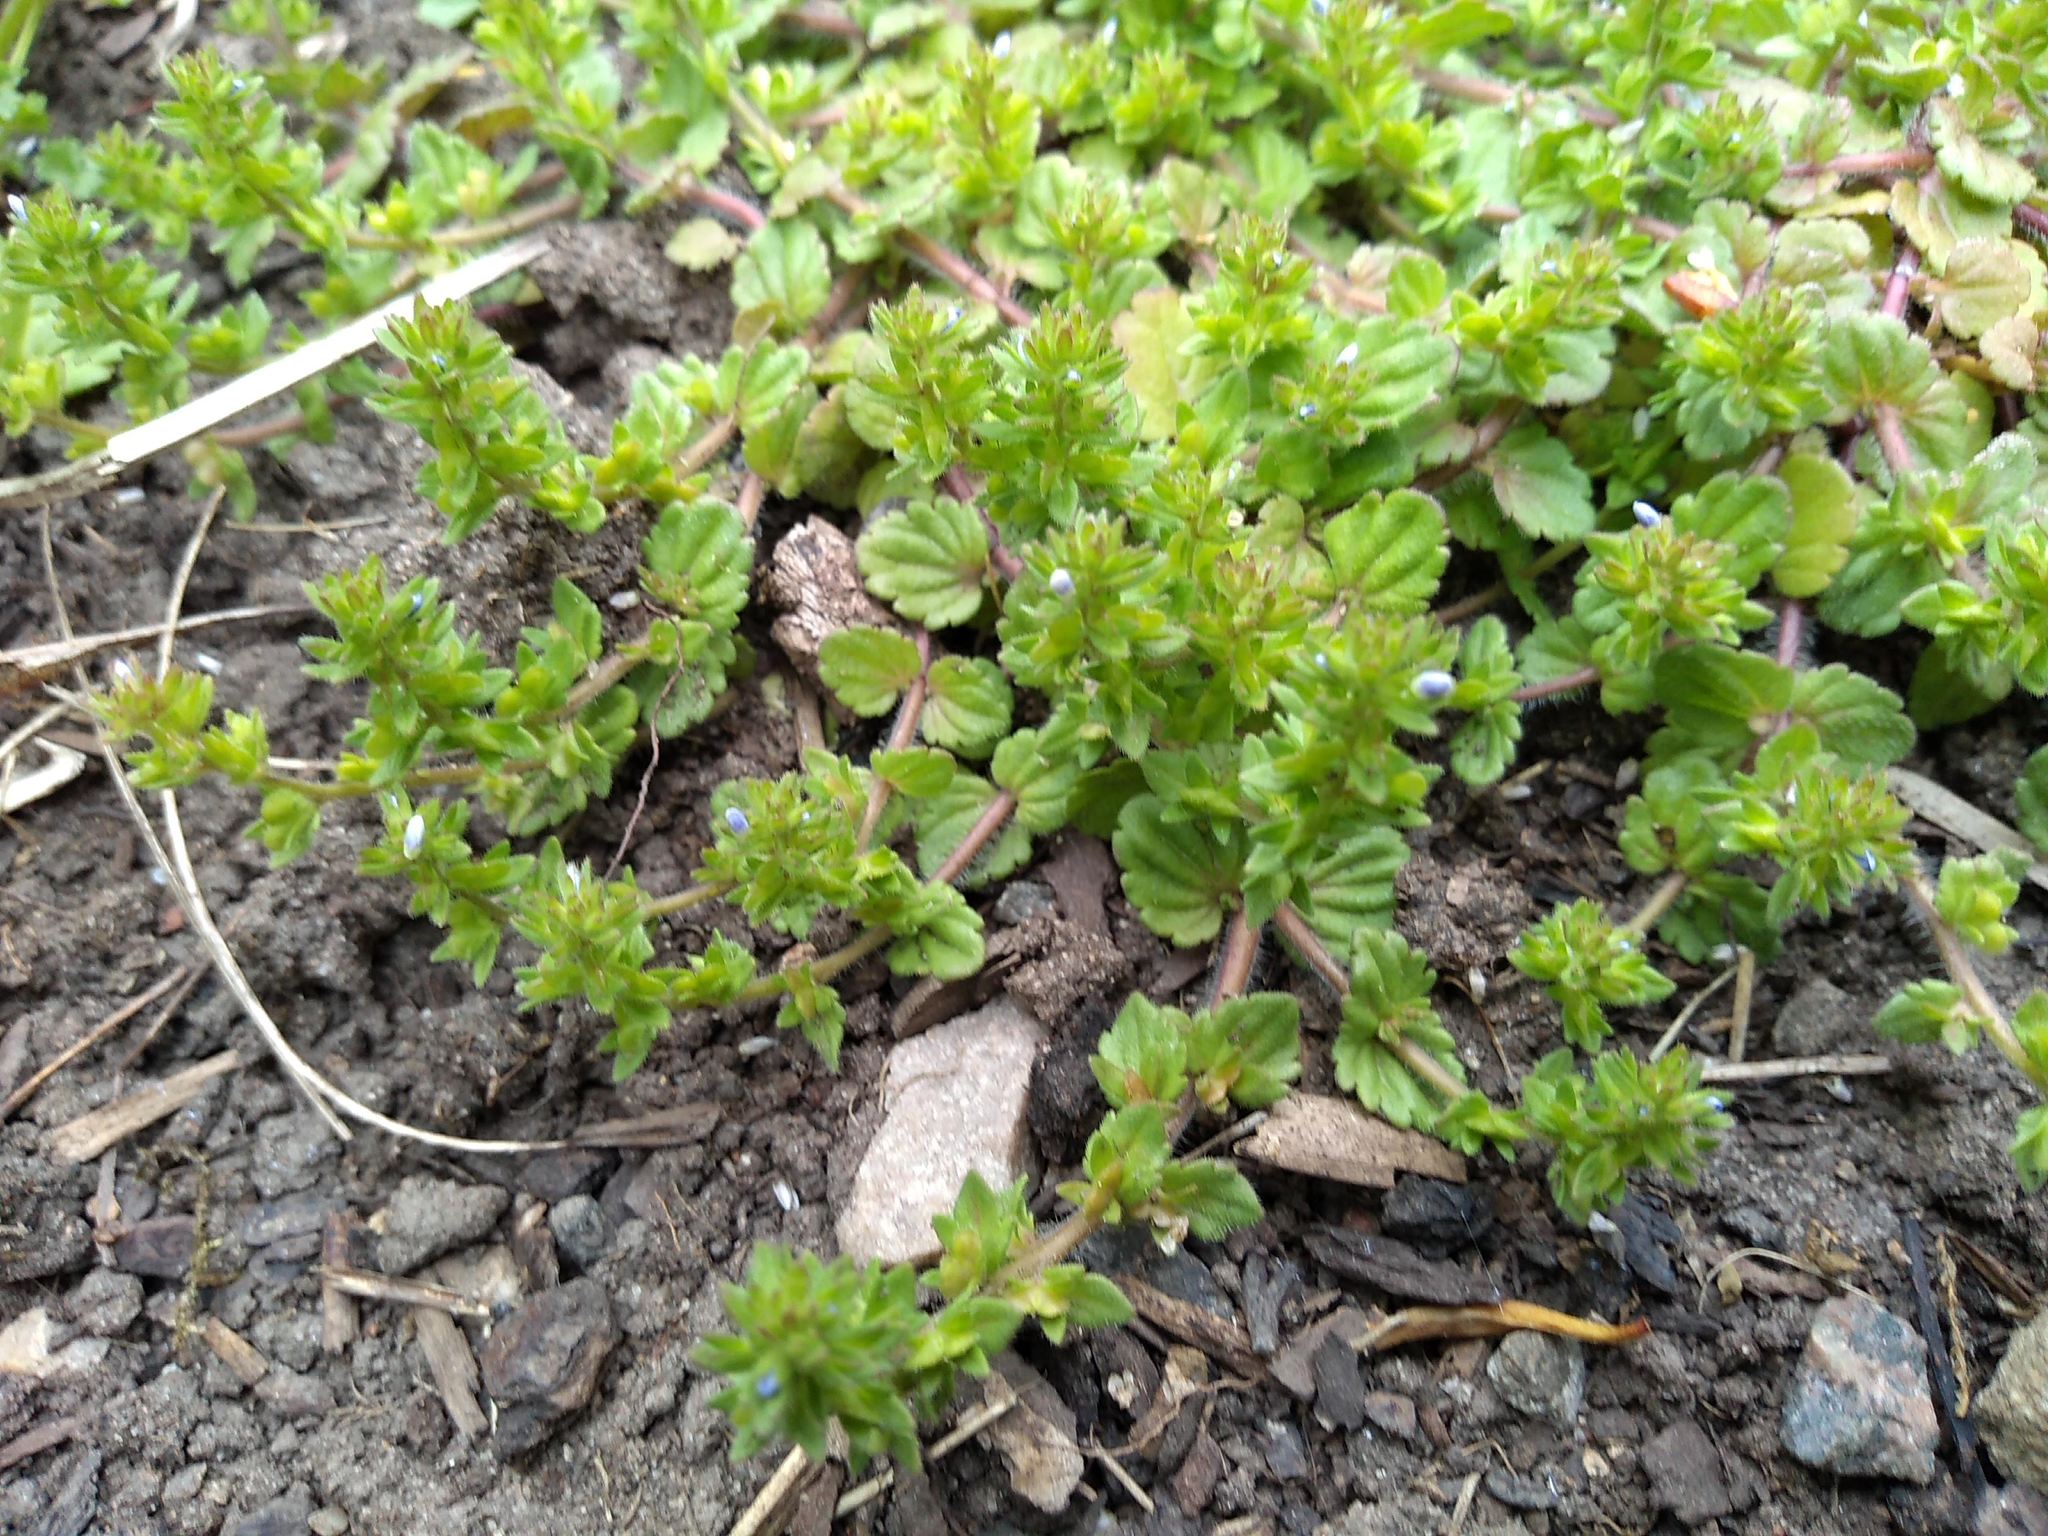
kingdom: Plantae
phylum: Tracheophyta
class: Magnoliopsida
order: Lamiales
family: Plantaginaceae
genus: Veronica
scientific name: Veronica arvensis
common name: Corn speedwell
